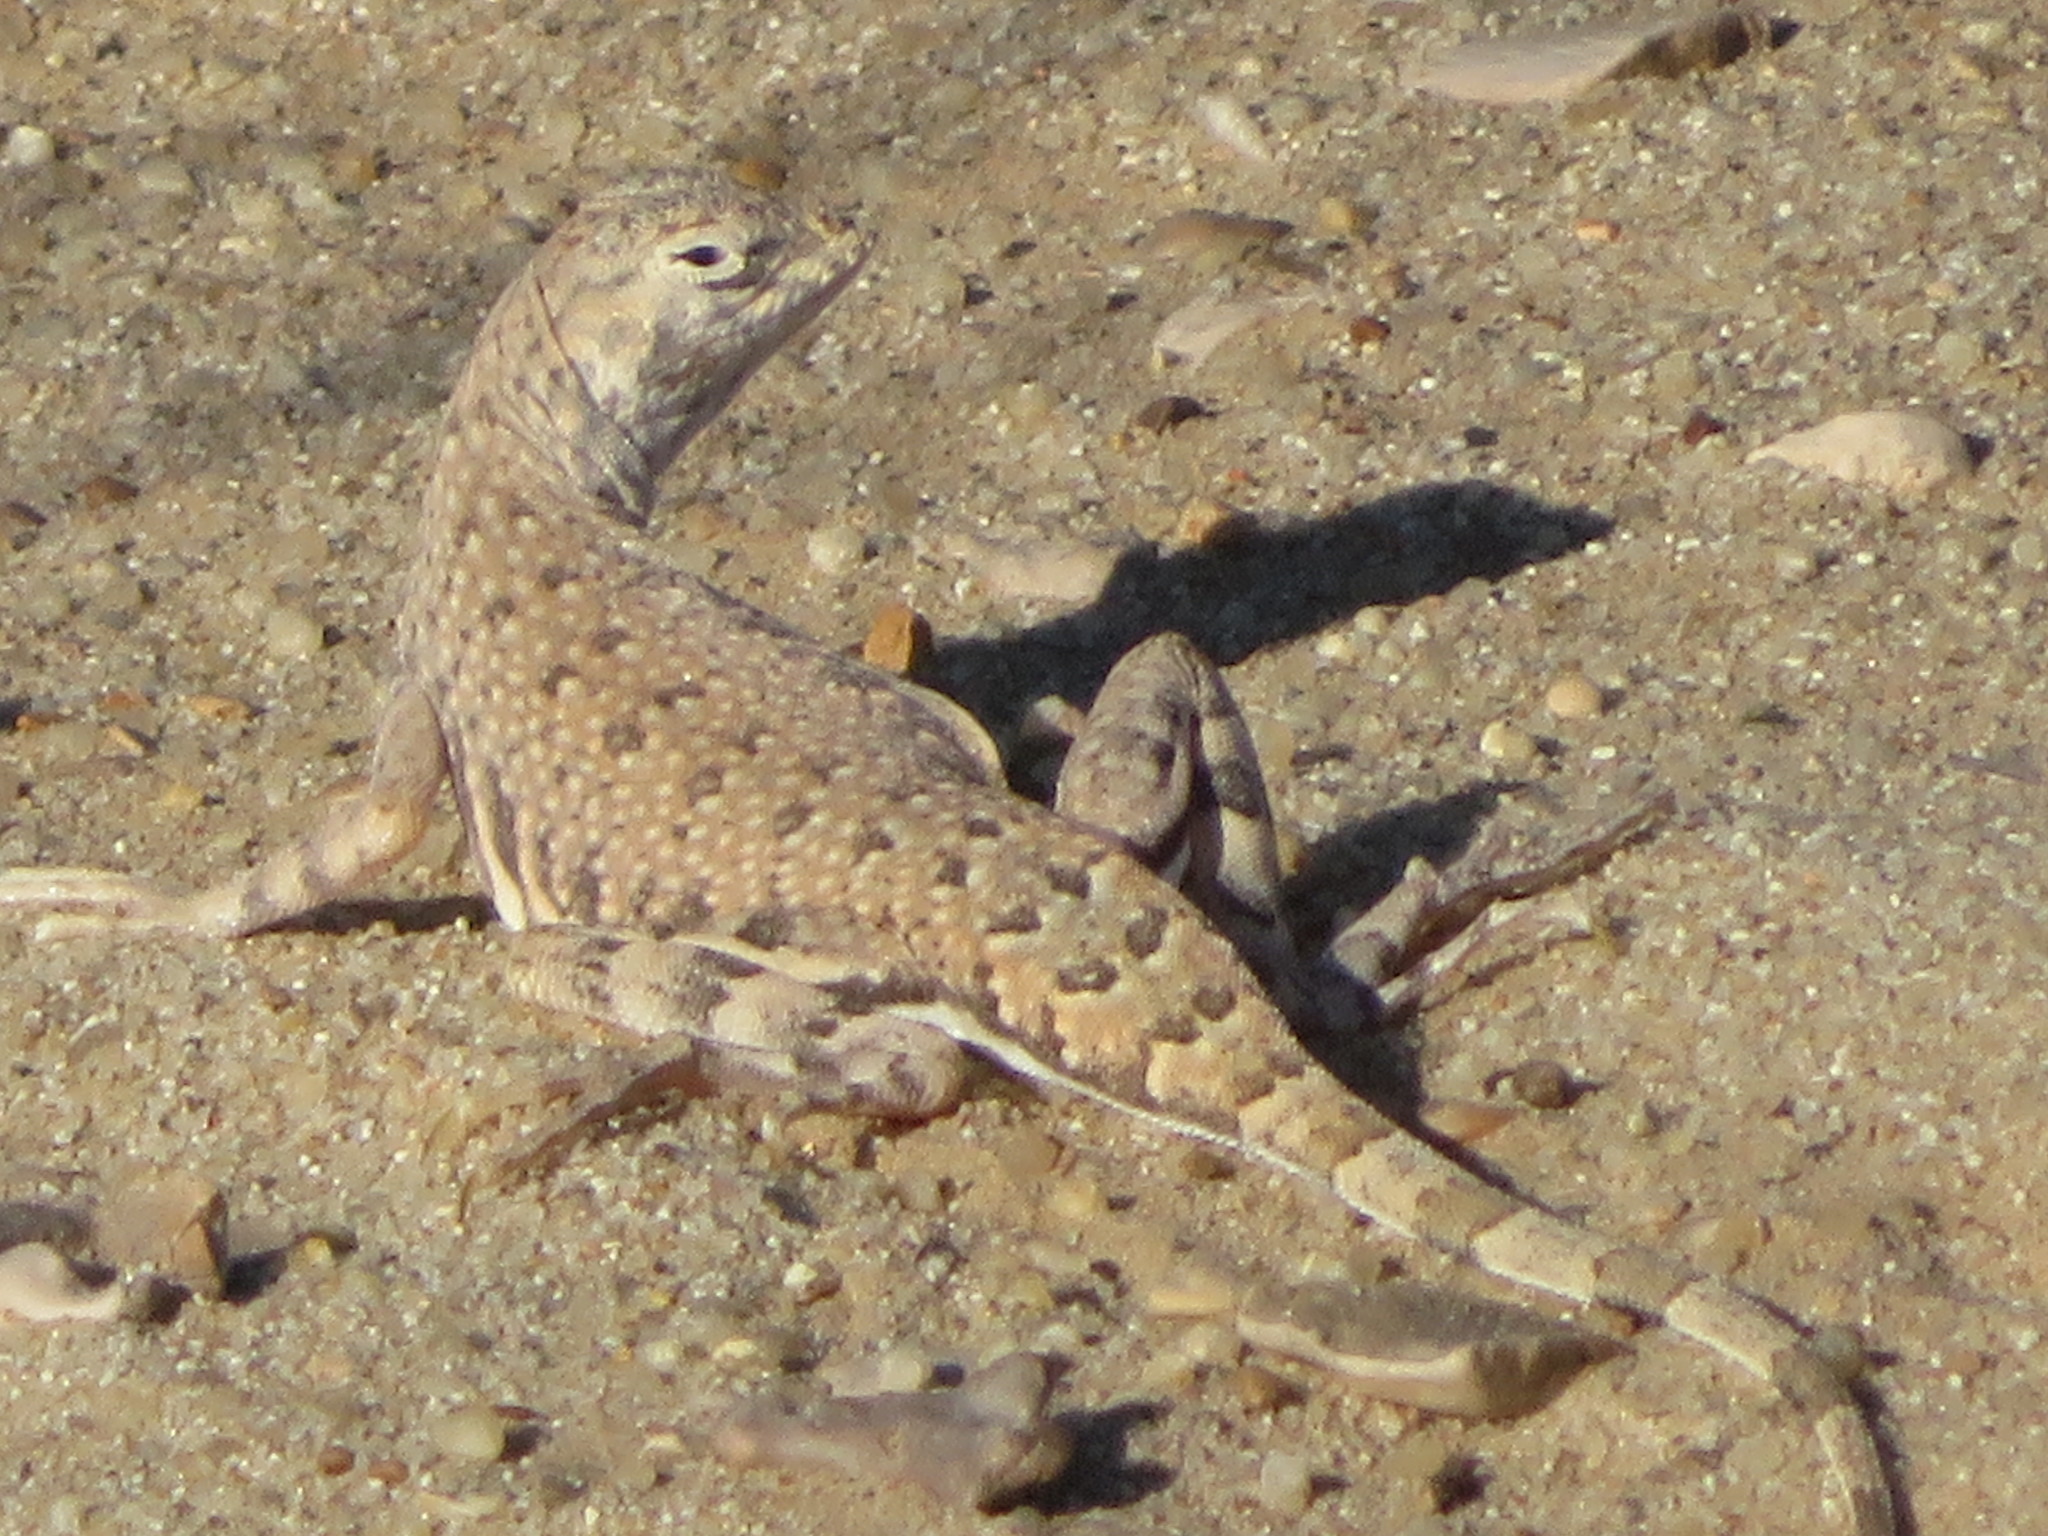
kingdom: Animalia
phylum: Chordata
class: Squamata
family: Phrynosomatidae
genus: Callisaurus
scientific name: Callisaurus draconoides
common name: Zebra-tailed lizard
